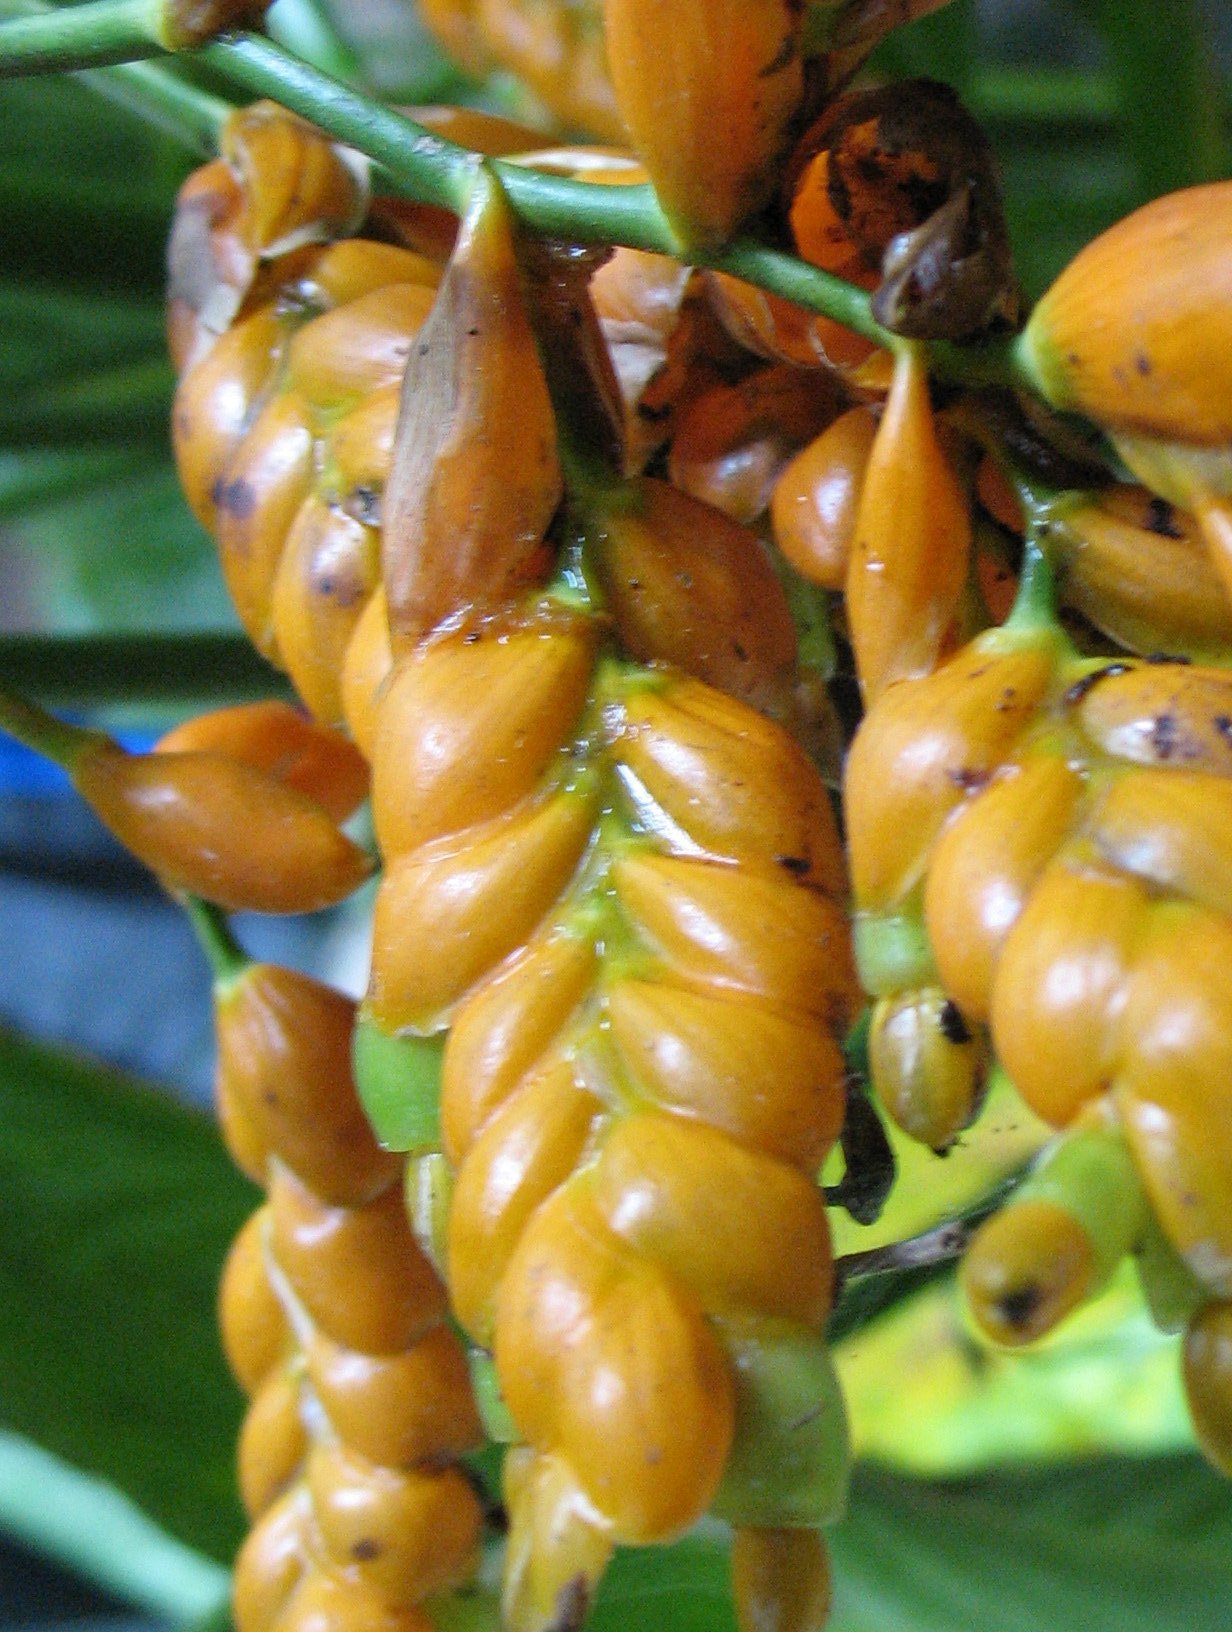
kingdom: Plantae
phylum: Tracheophyta
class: Liliopsida
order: Zingiberales
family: Marantaceae
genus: Stromanthe
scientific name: Stromanthe jacquinii
